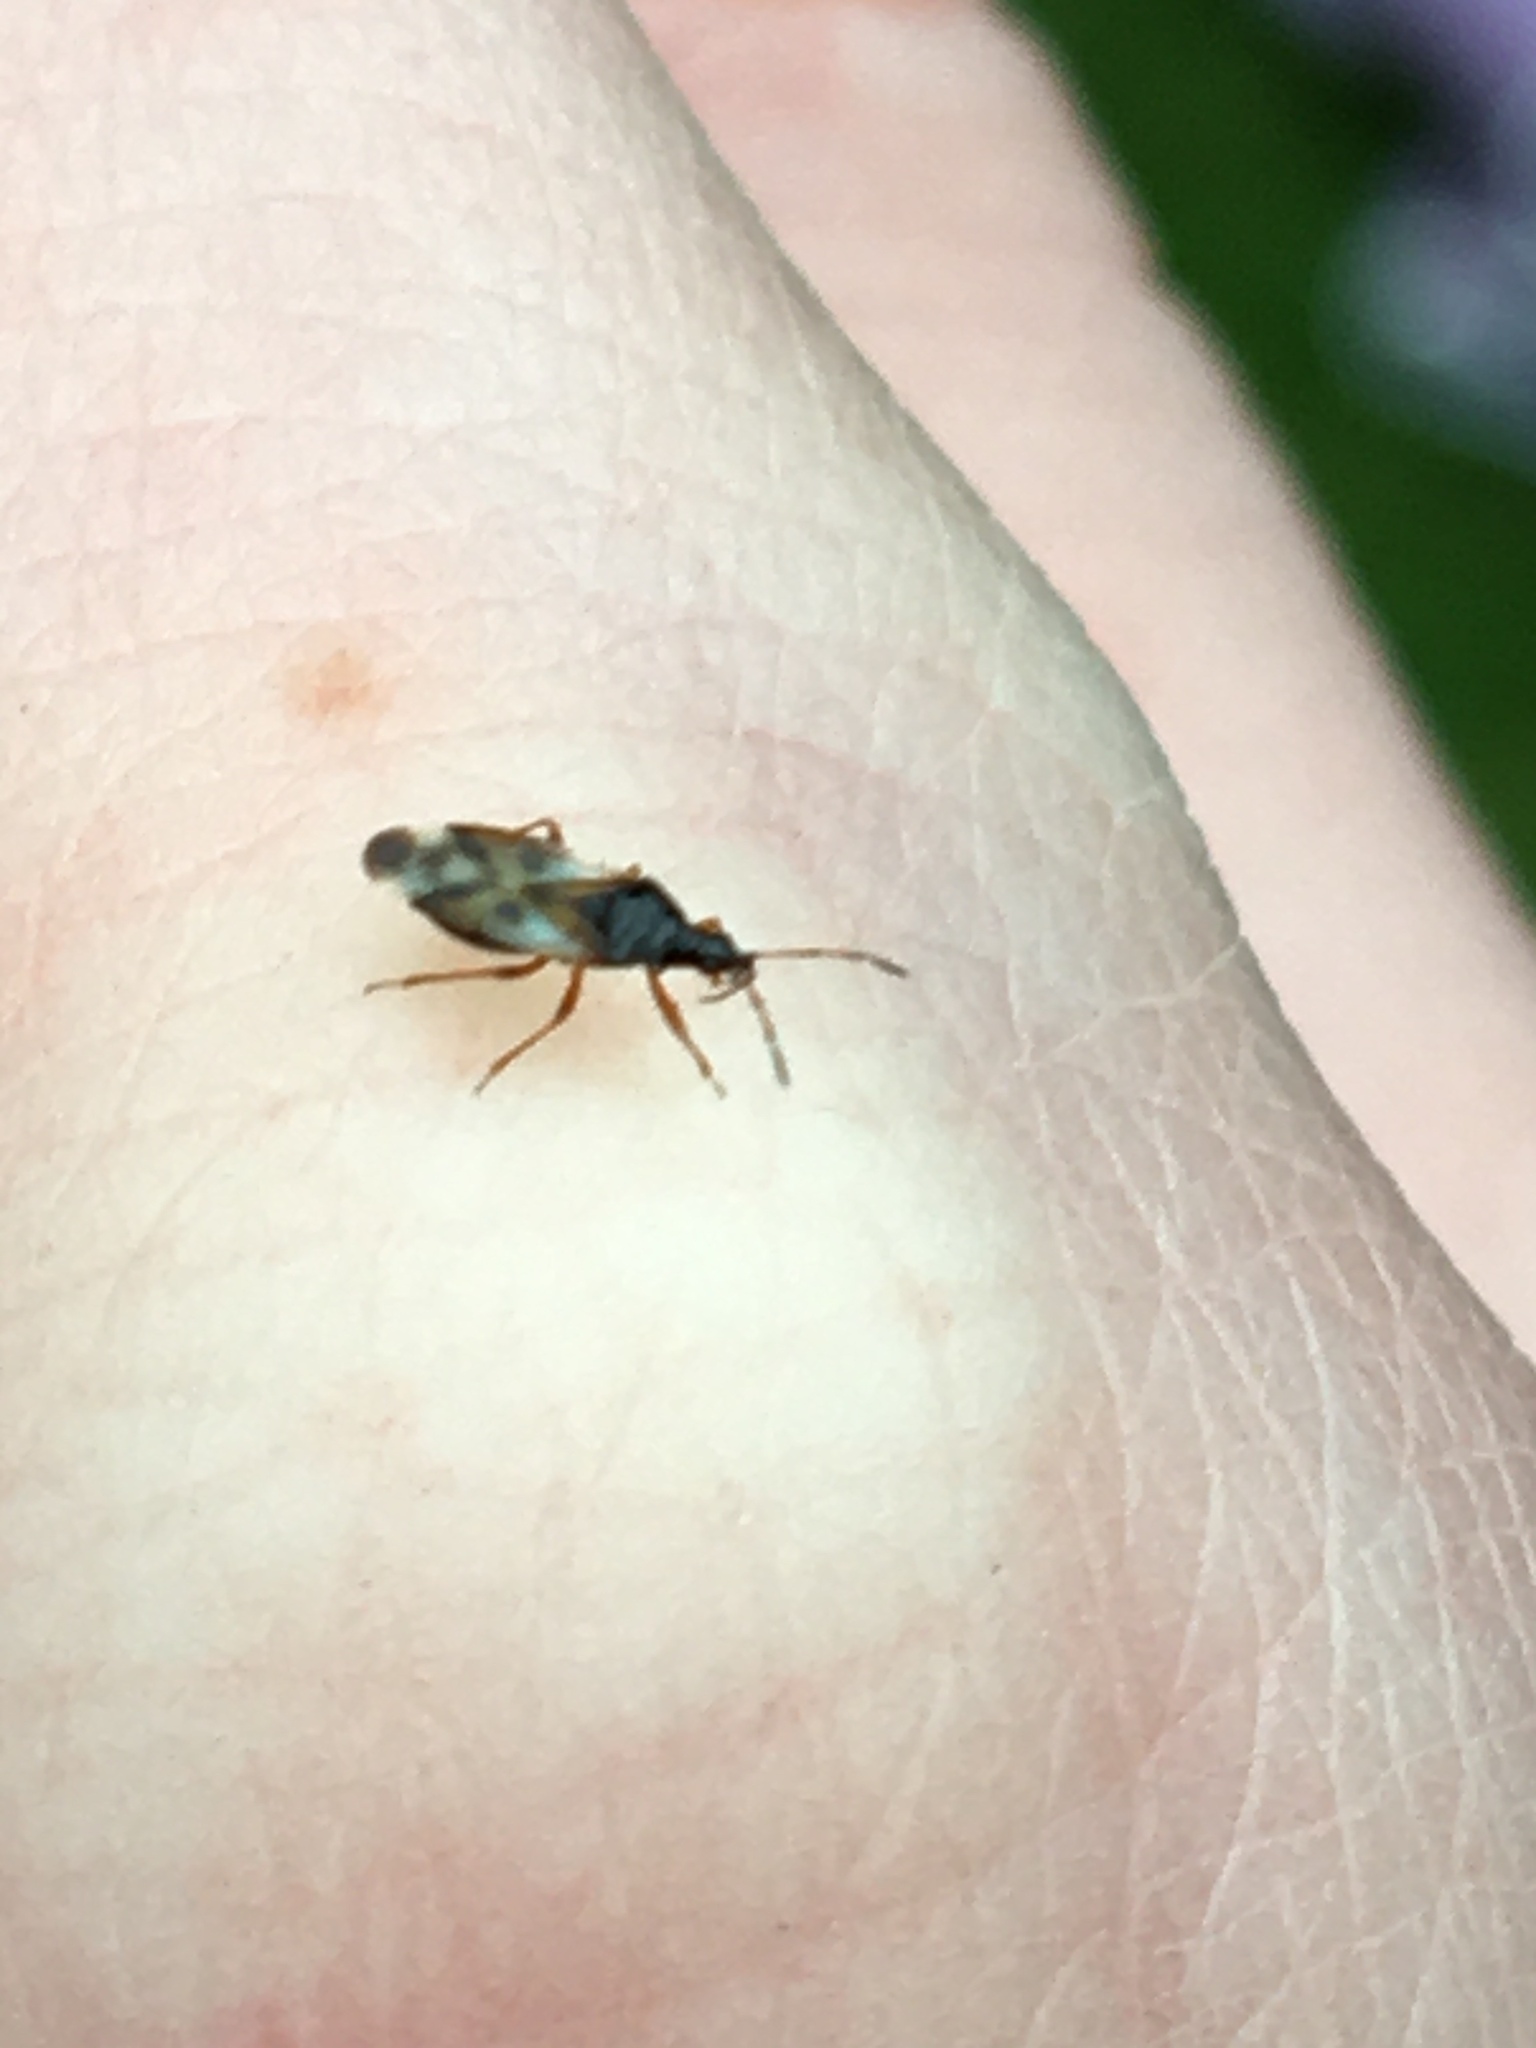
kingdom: Animalia
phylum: Arthropoda
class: Insecta
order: Hemiptera
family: Anthocoridae
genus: Anthocoris
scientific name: Anthocoris nemorum
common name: Minute pirate bug
